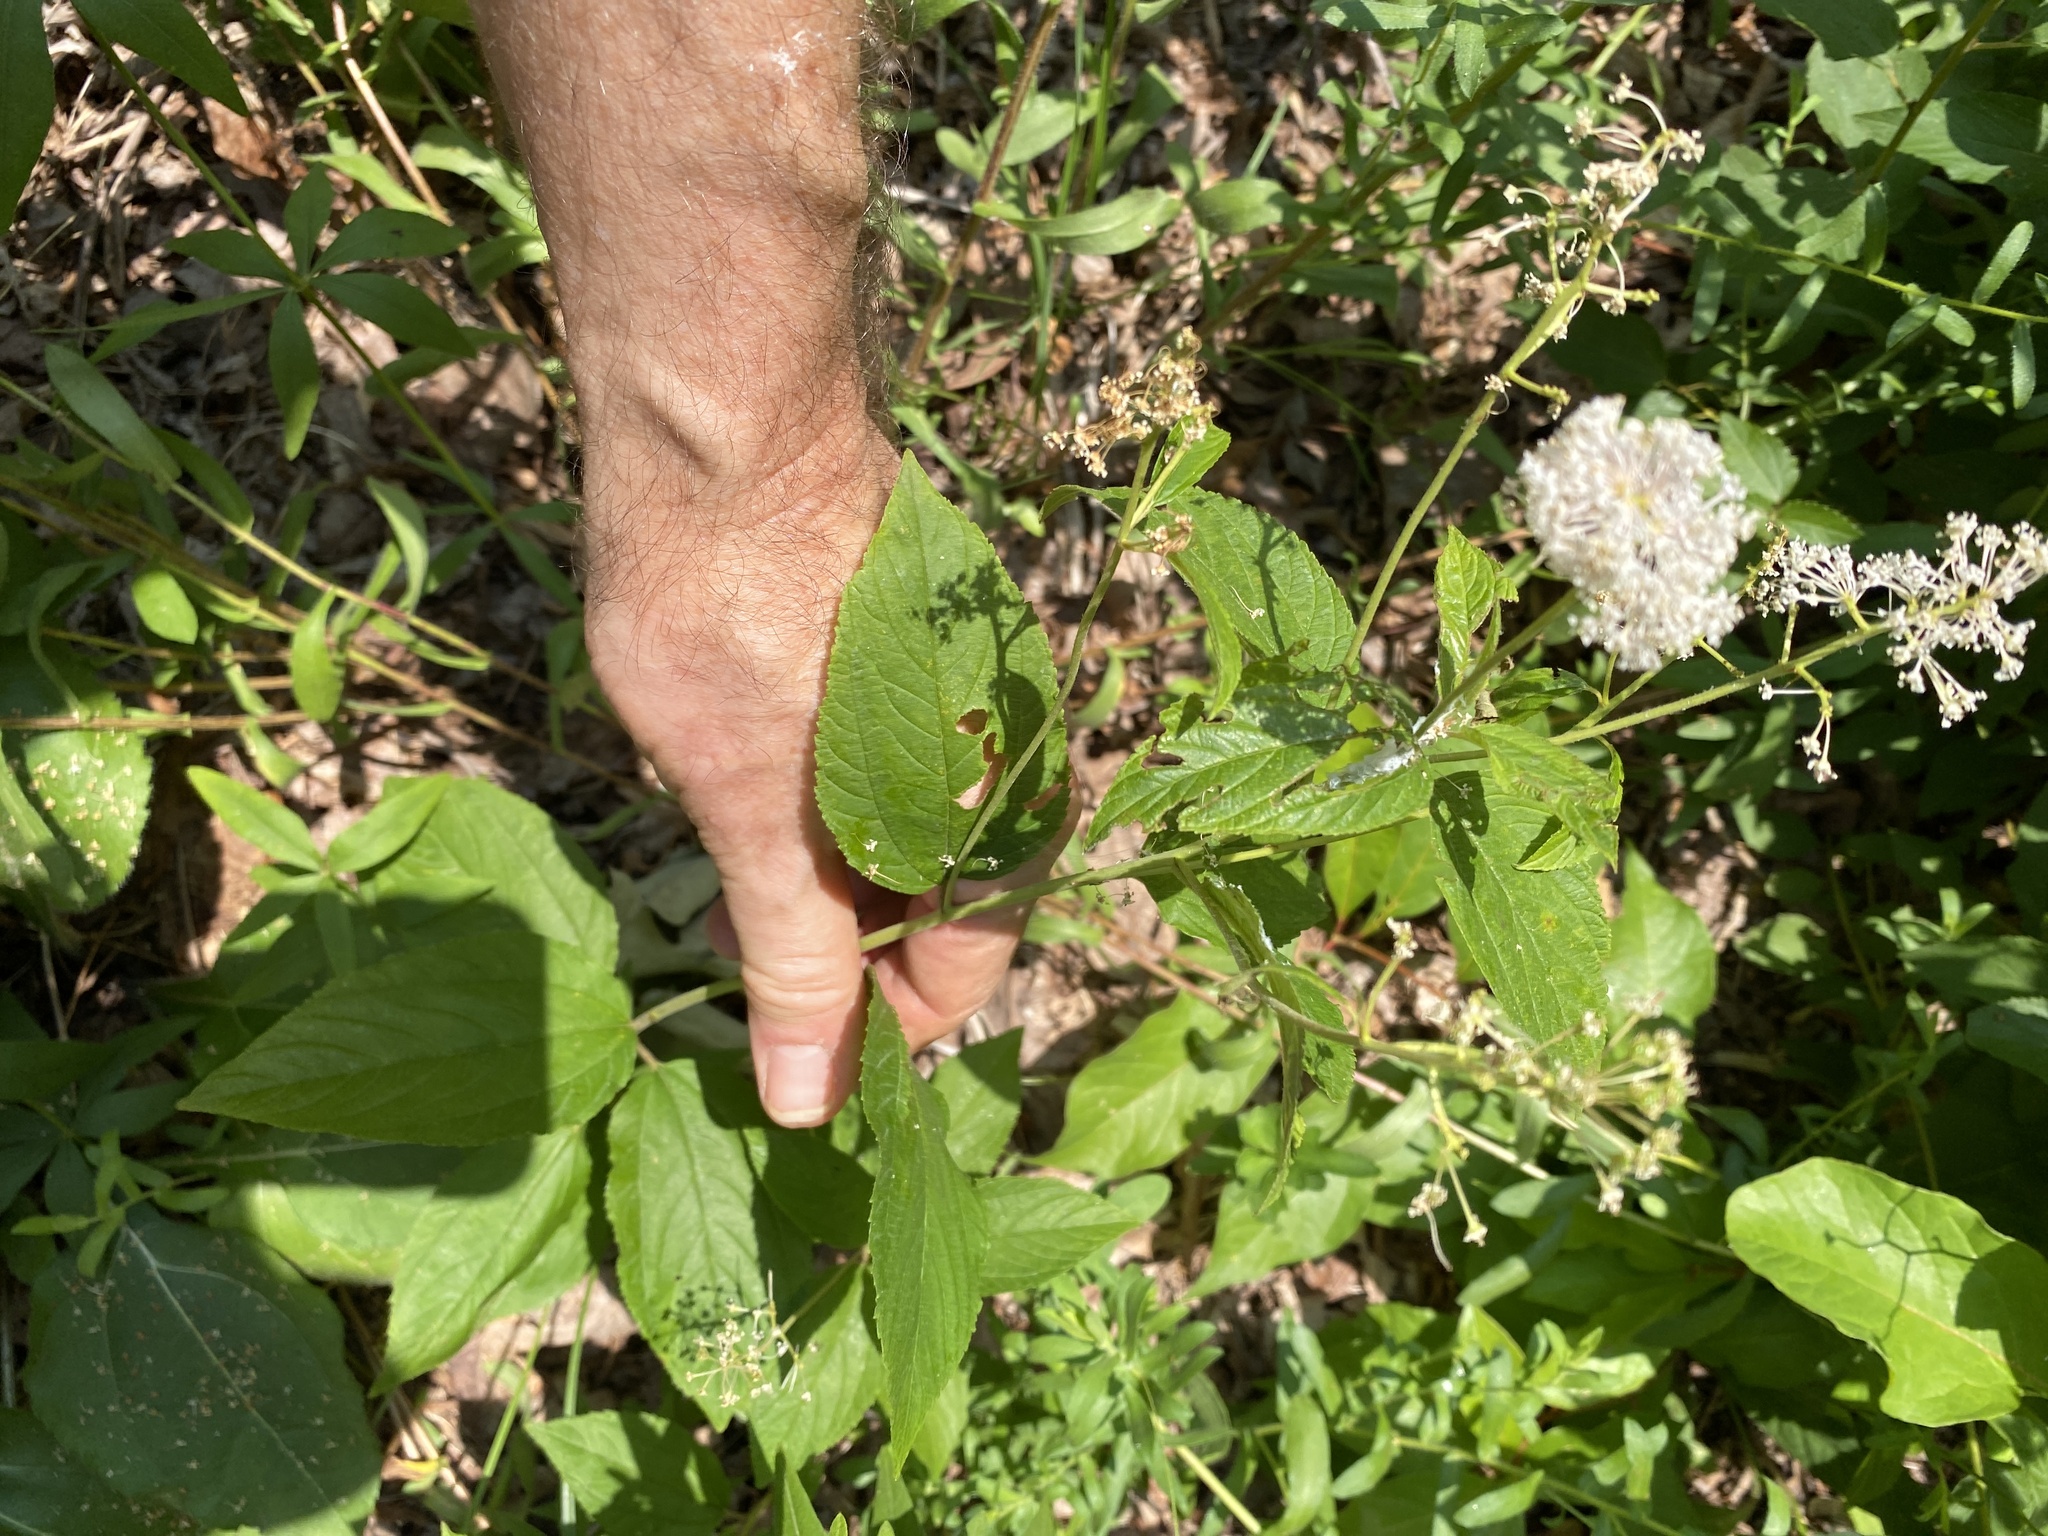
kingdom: Plantae
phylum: Tracheophyta
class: Magnoliopsida
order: Rosales
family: Rhamnaceae
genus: Ceanothus
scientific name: Ceanothus americanus
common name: Redroot
